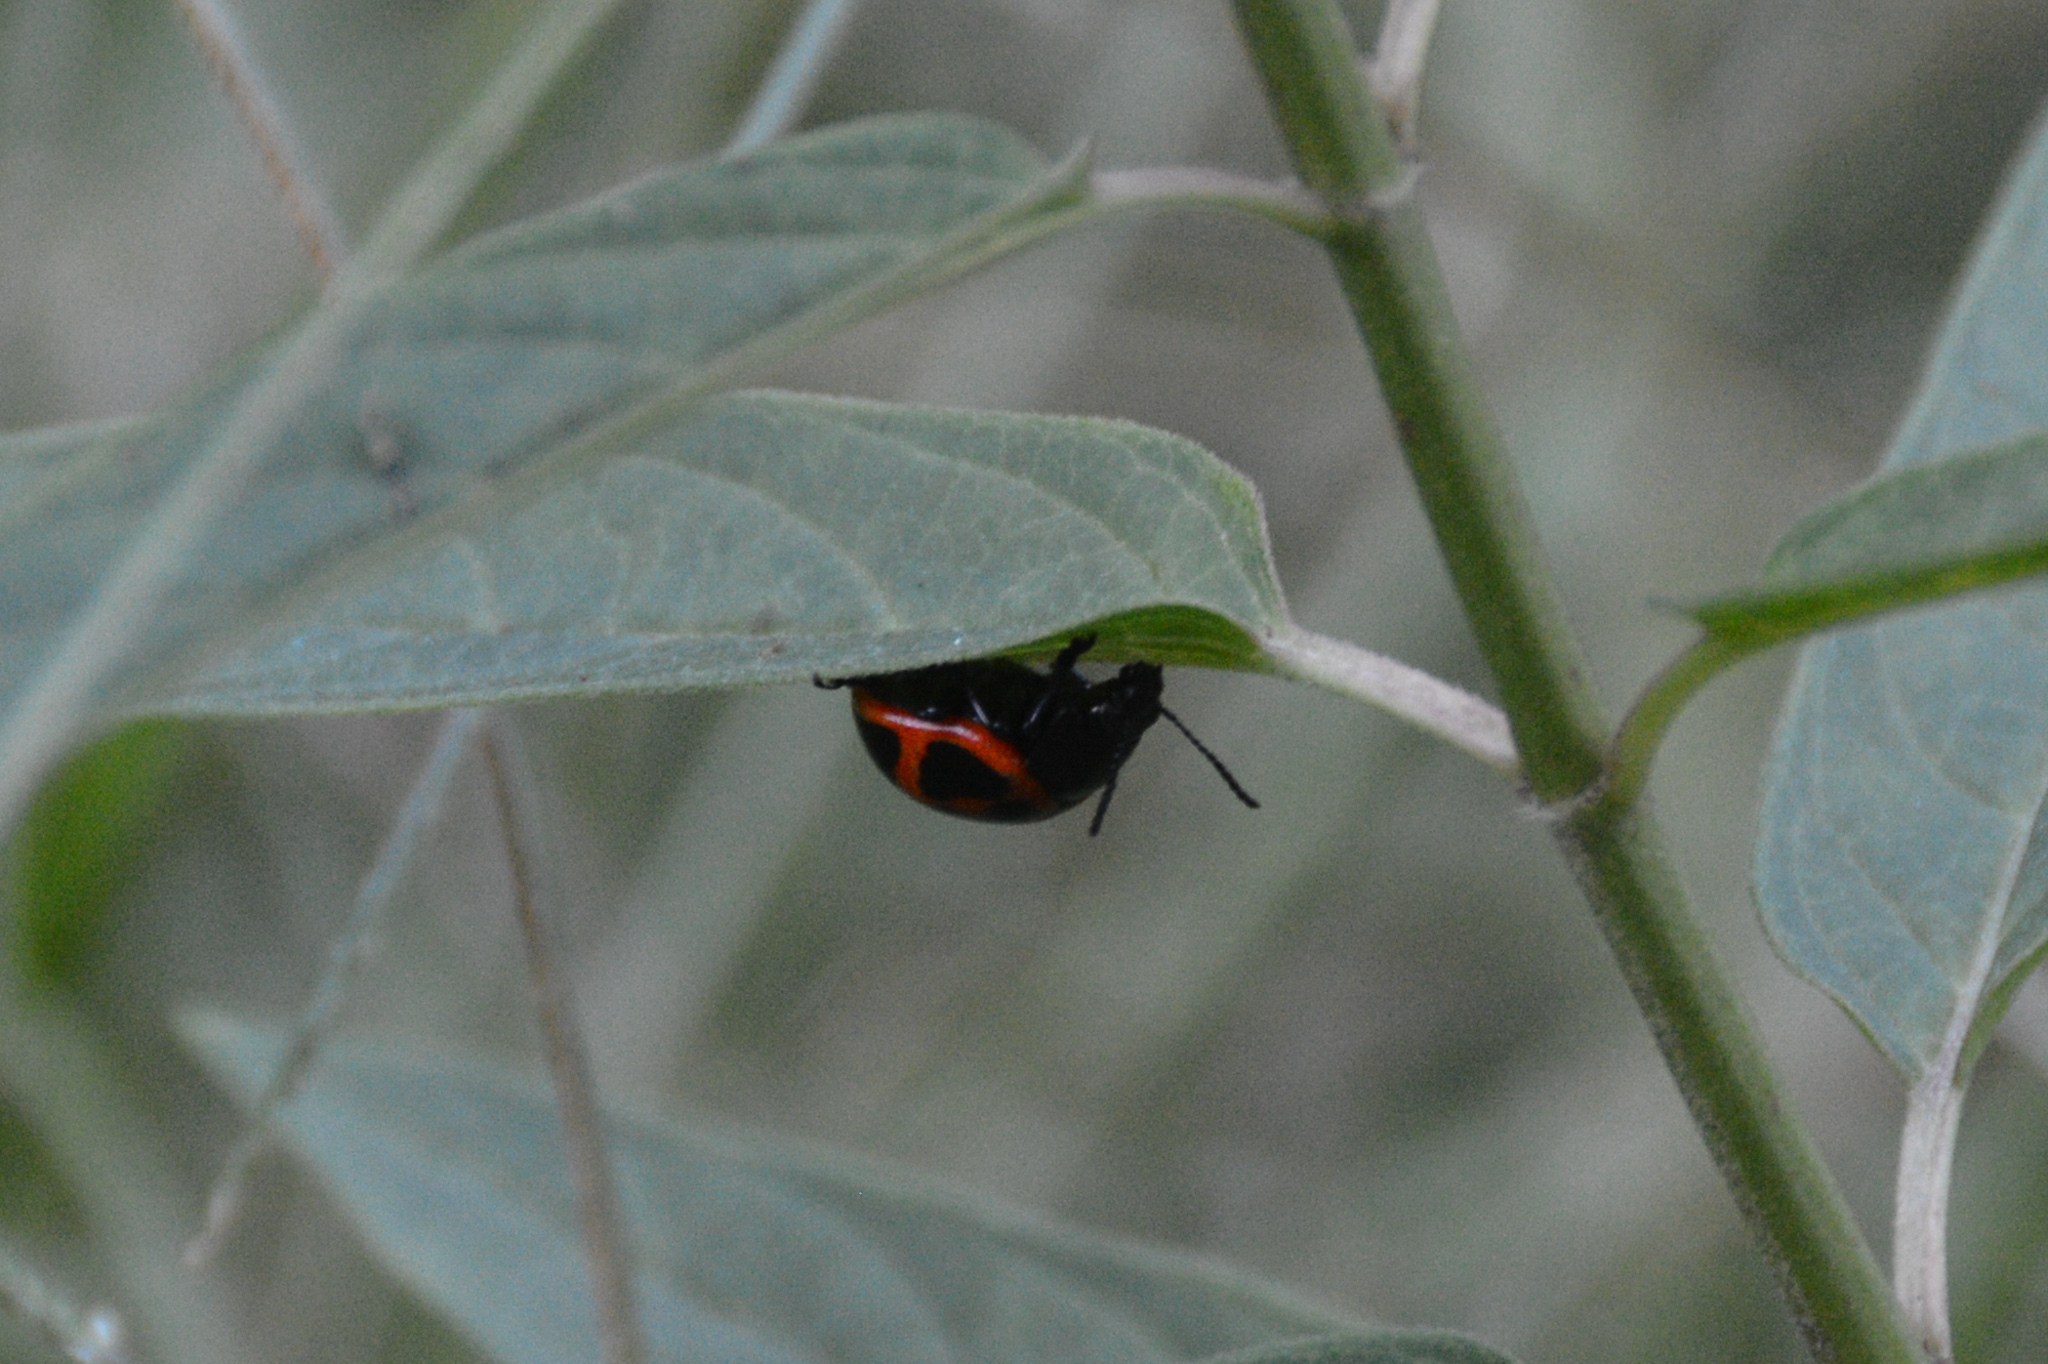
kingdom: Animalia
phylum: Arthropoda
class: Insecta
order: Coleoptera
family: Chrysomelidae
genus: Labidomera
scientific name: Labidomera clivicollis
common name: Swamp milkweed leaf beetle
